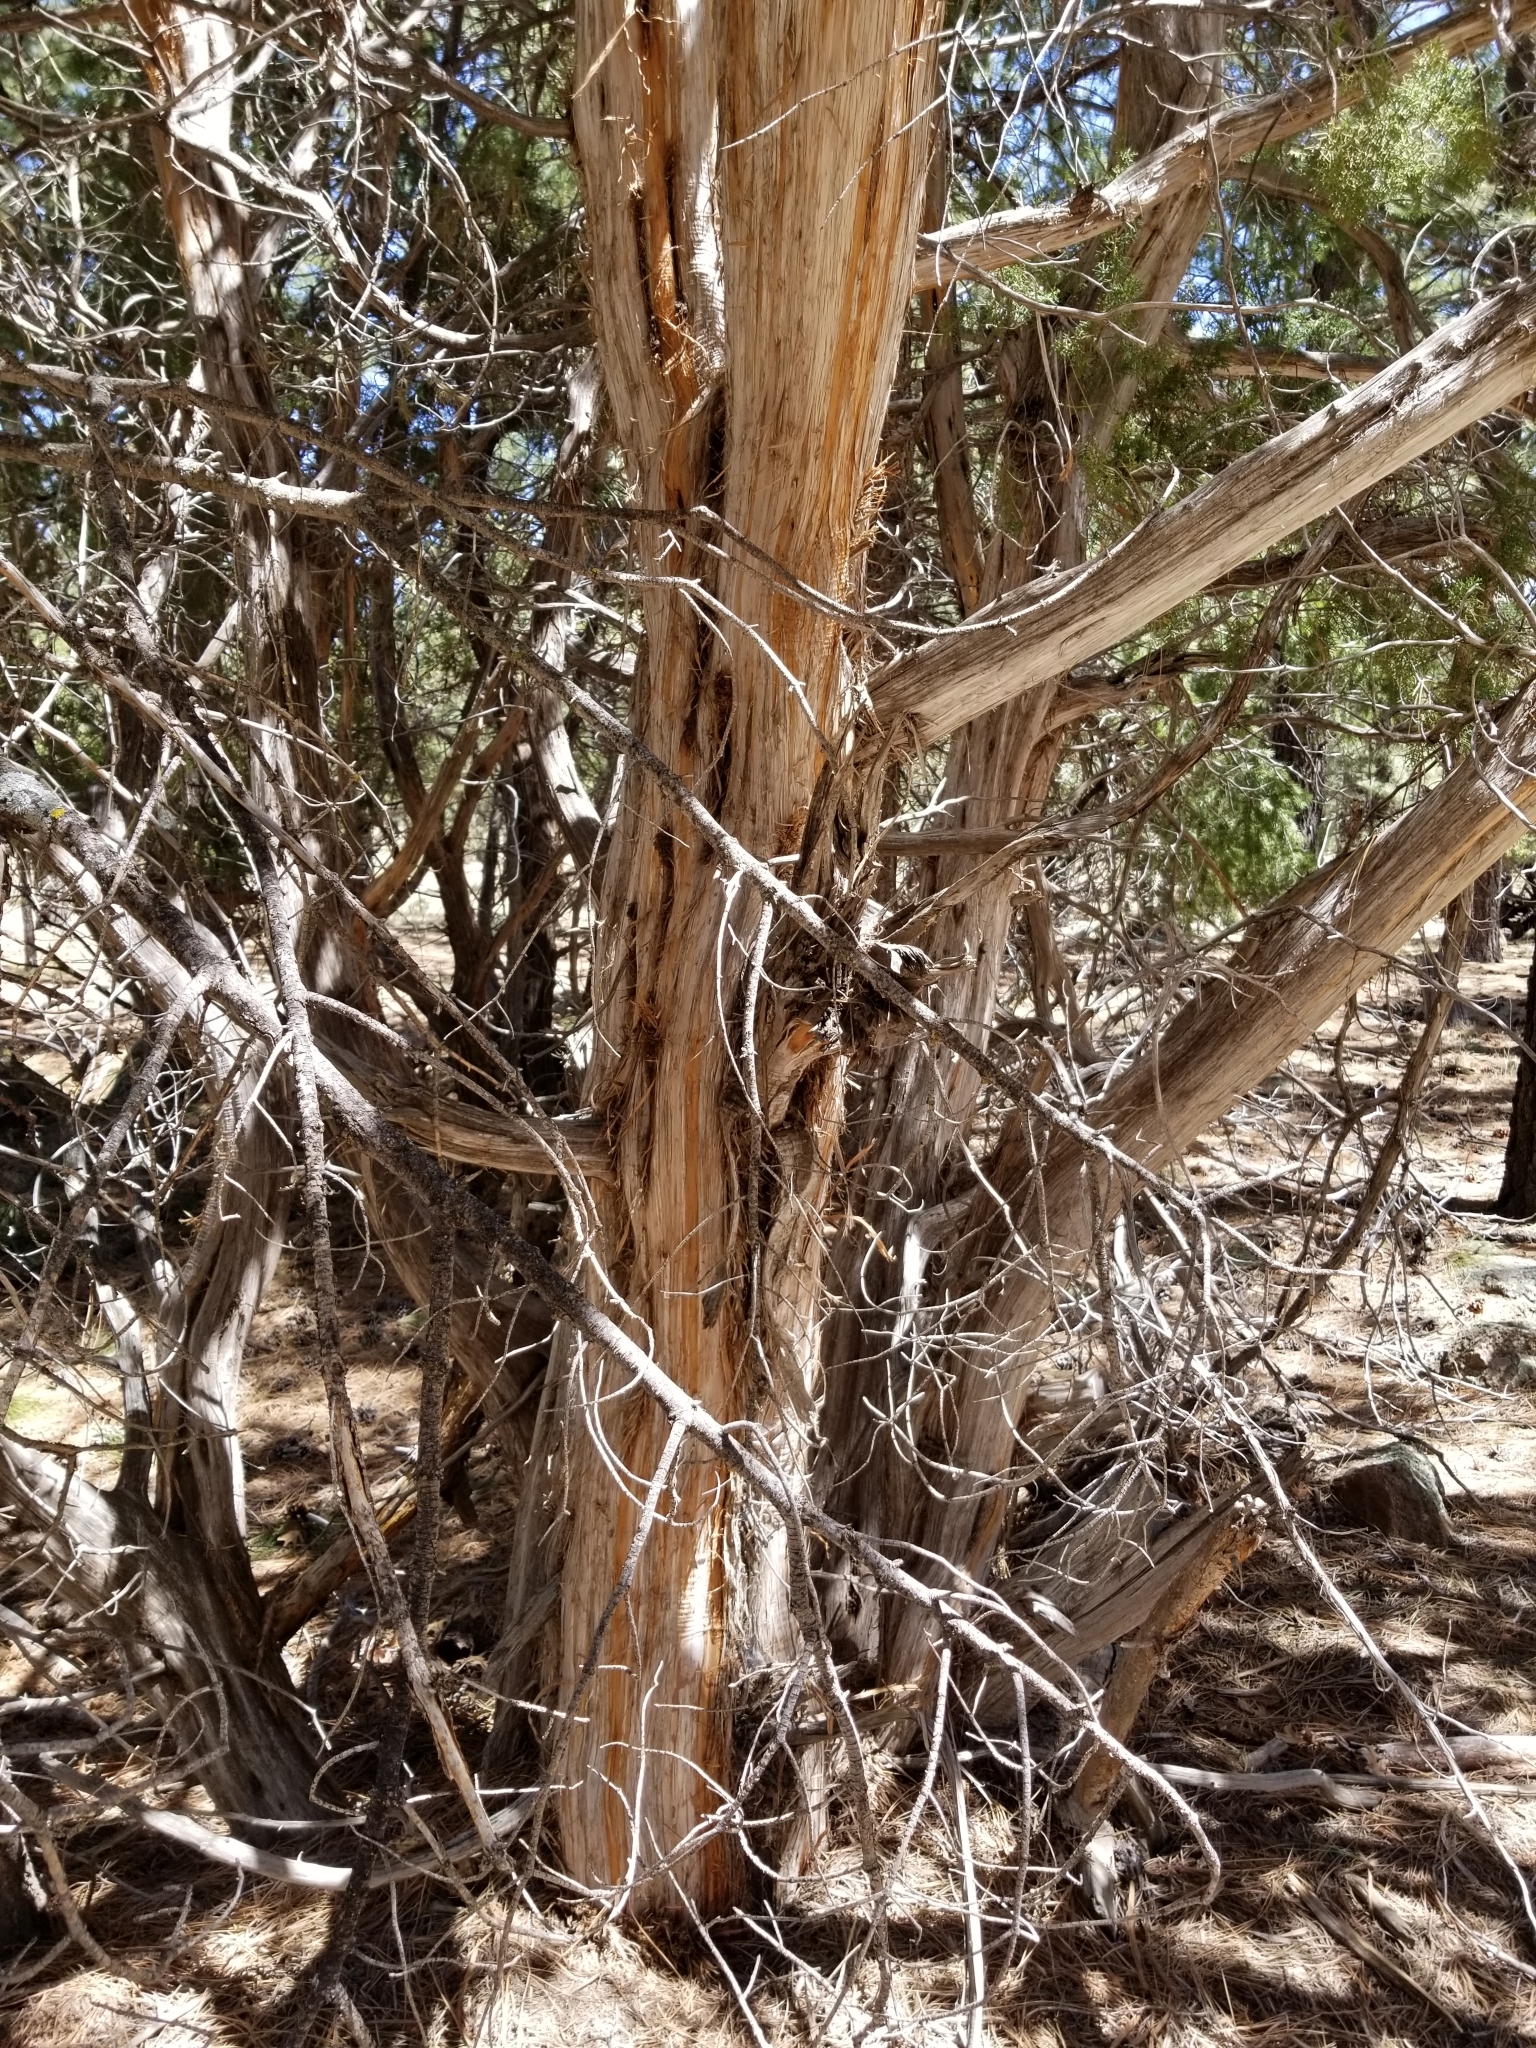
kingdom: Plantae
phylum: Tracheophyta
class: Pinopsida
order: Pinales
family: Cupressaceae
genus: Juniperus
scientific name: Juniperus scopulorum
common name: Rocky mountain juniper
